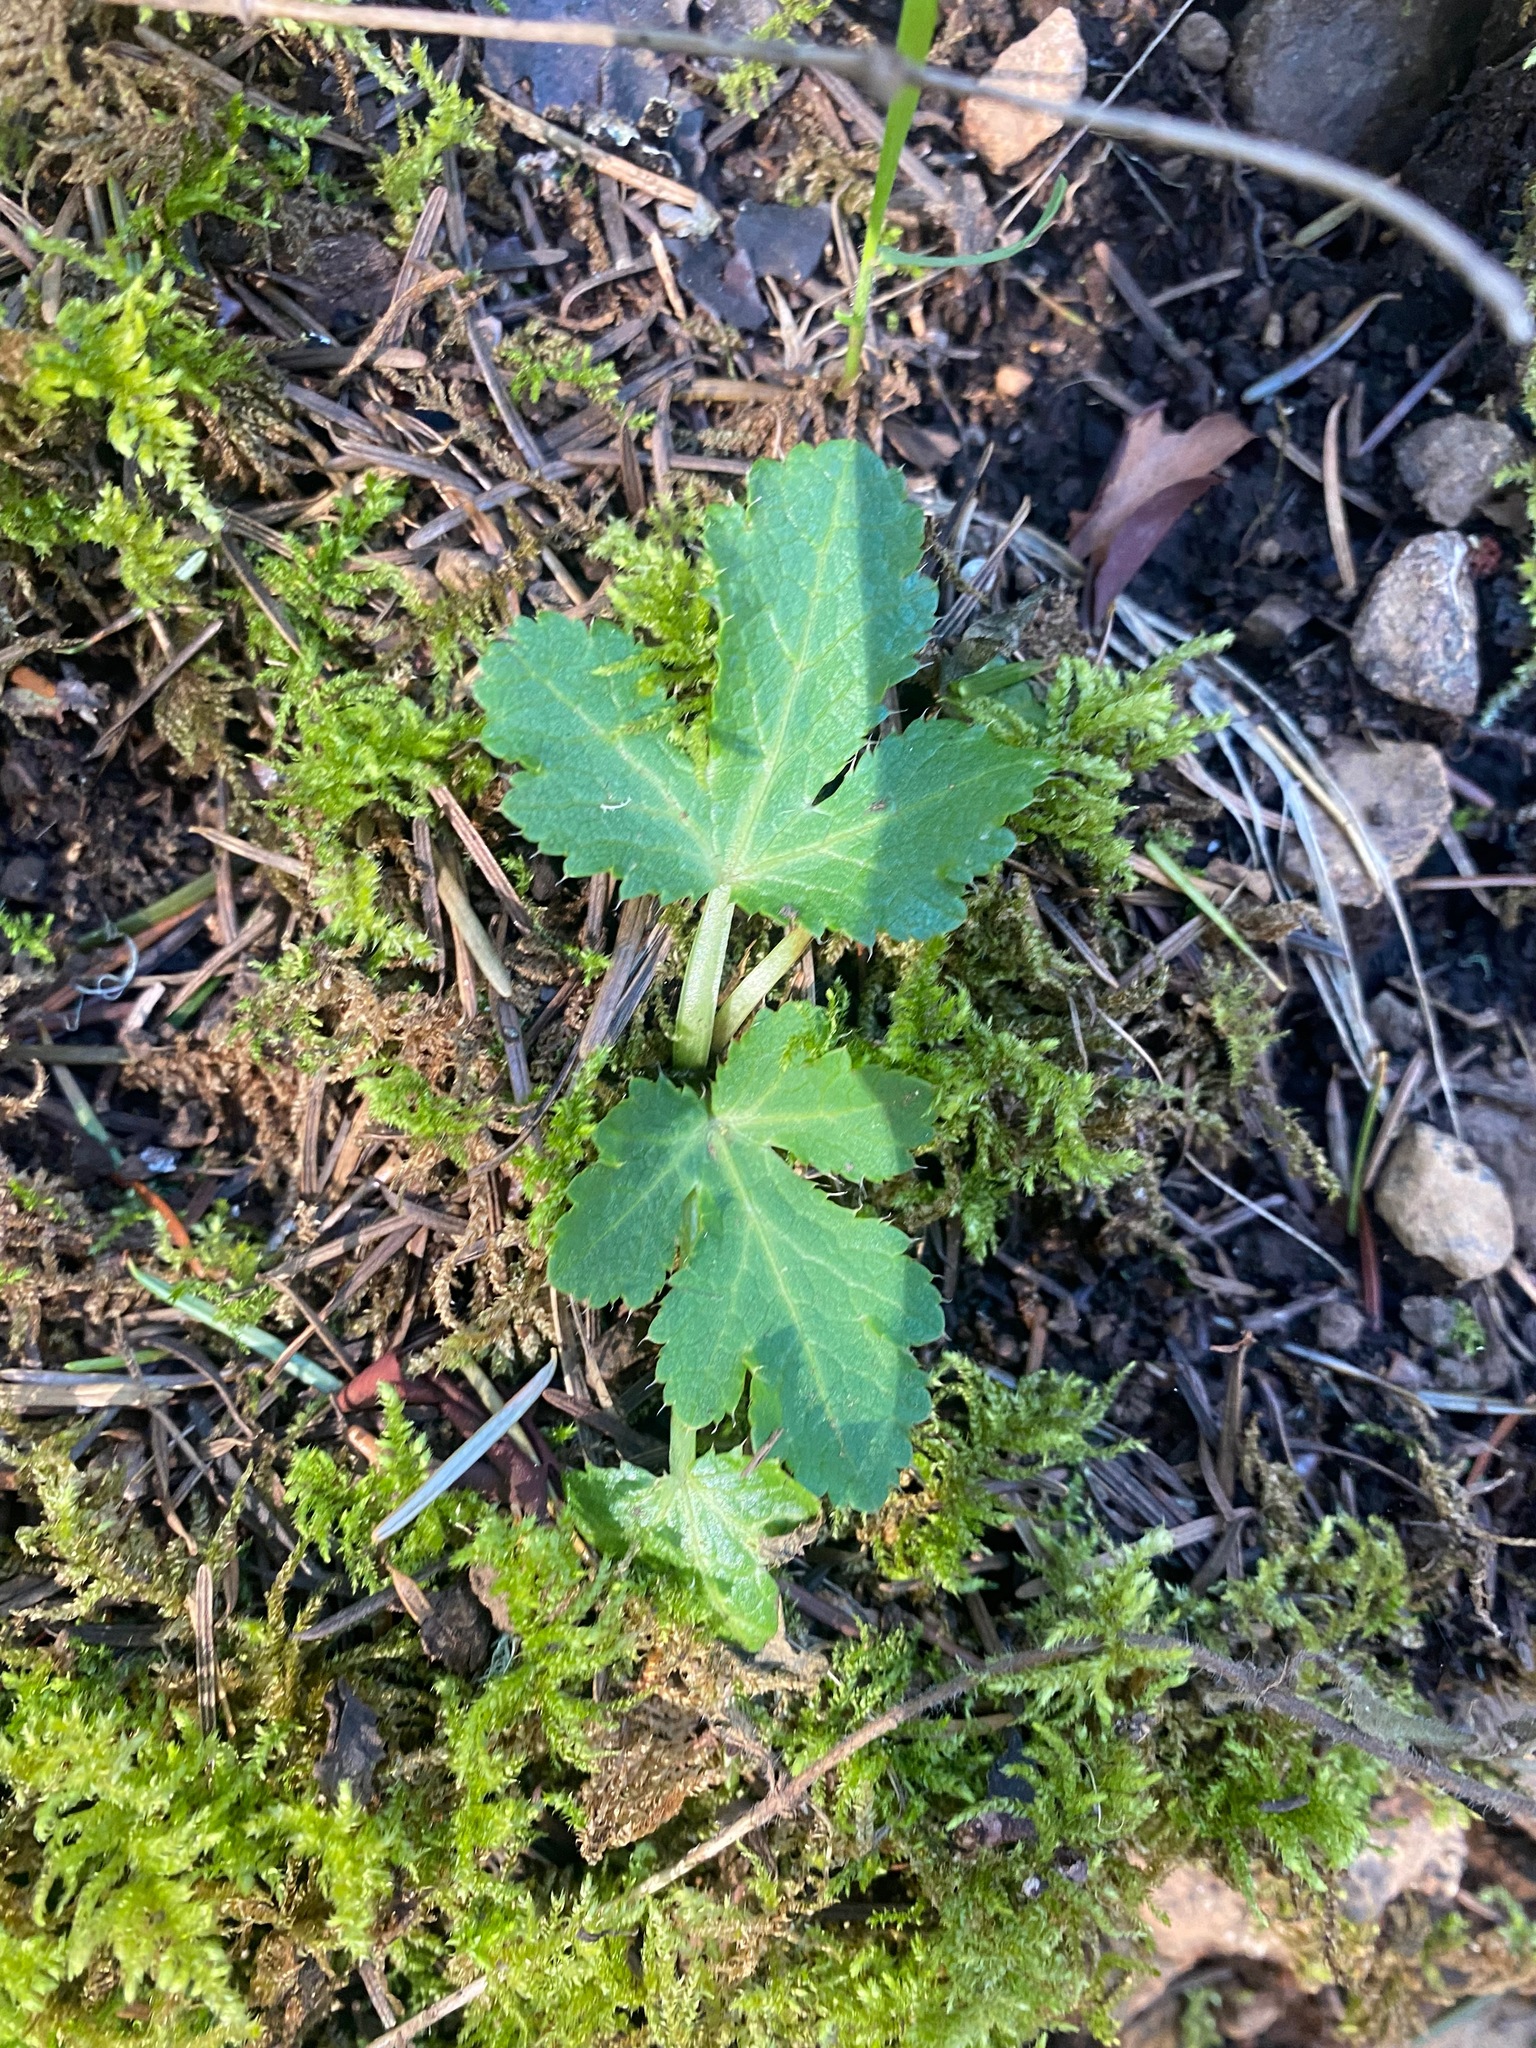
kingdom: Plantae
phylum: Tracheophyta
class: Magnoliopsida
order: Apiales
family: Apiaceae
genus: Sanicula
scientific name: Sanicula crassicaulis
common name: Western snakeroot
